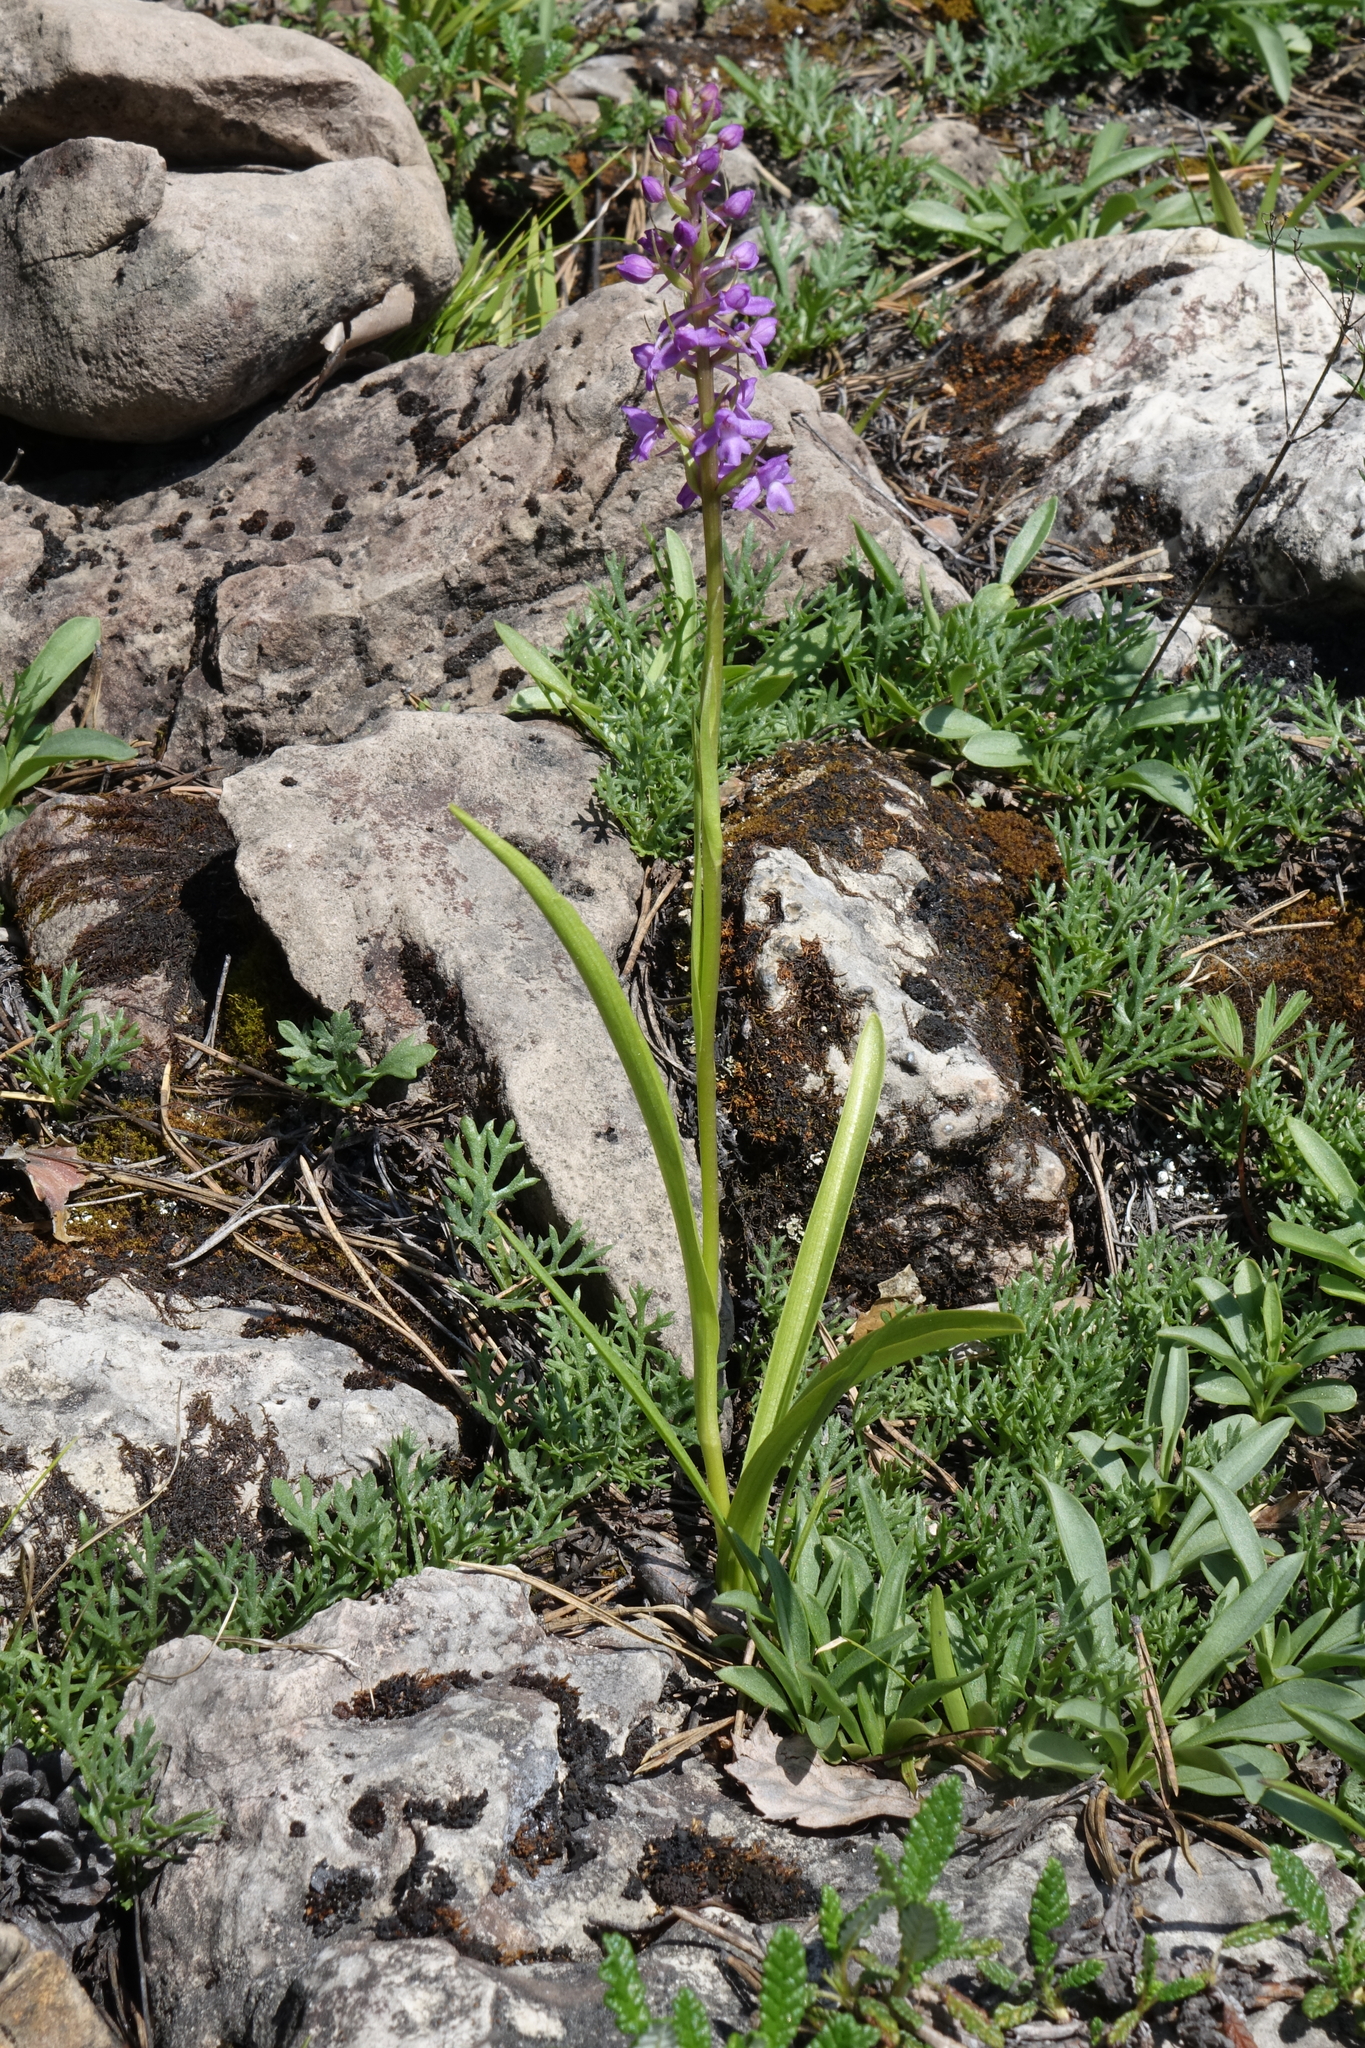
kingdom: Plantae
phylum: Tracheophyta
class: Liliopsida
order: Asparagales
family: Orchidaceae
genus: Gymnadenia
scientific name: Gymnadenia conopsea
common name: Fragrant orchid
